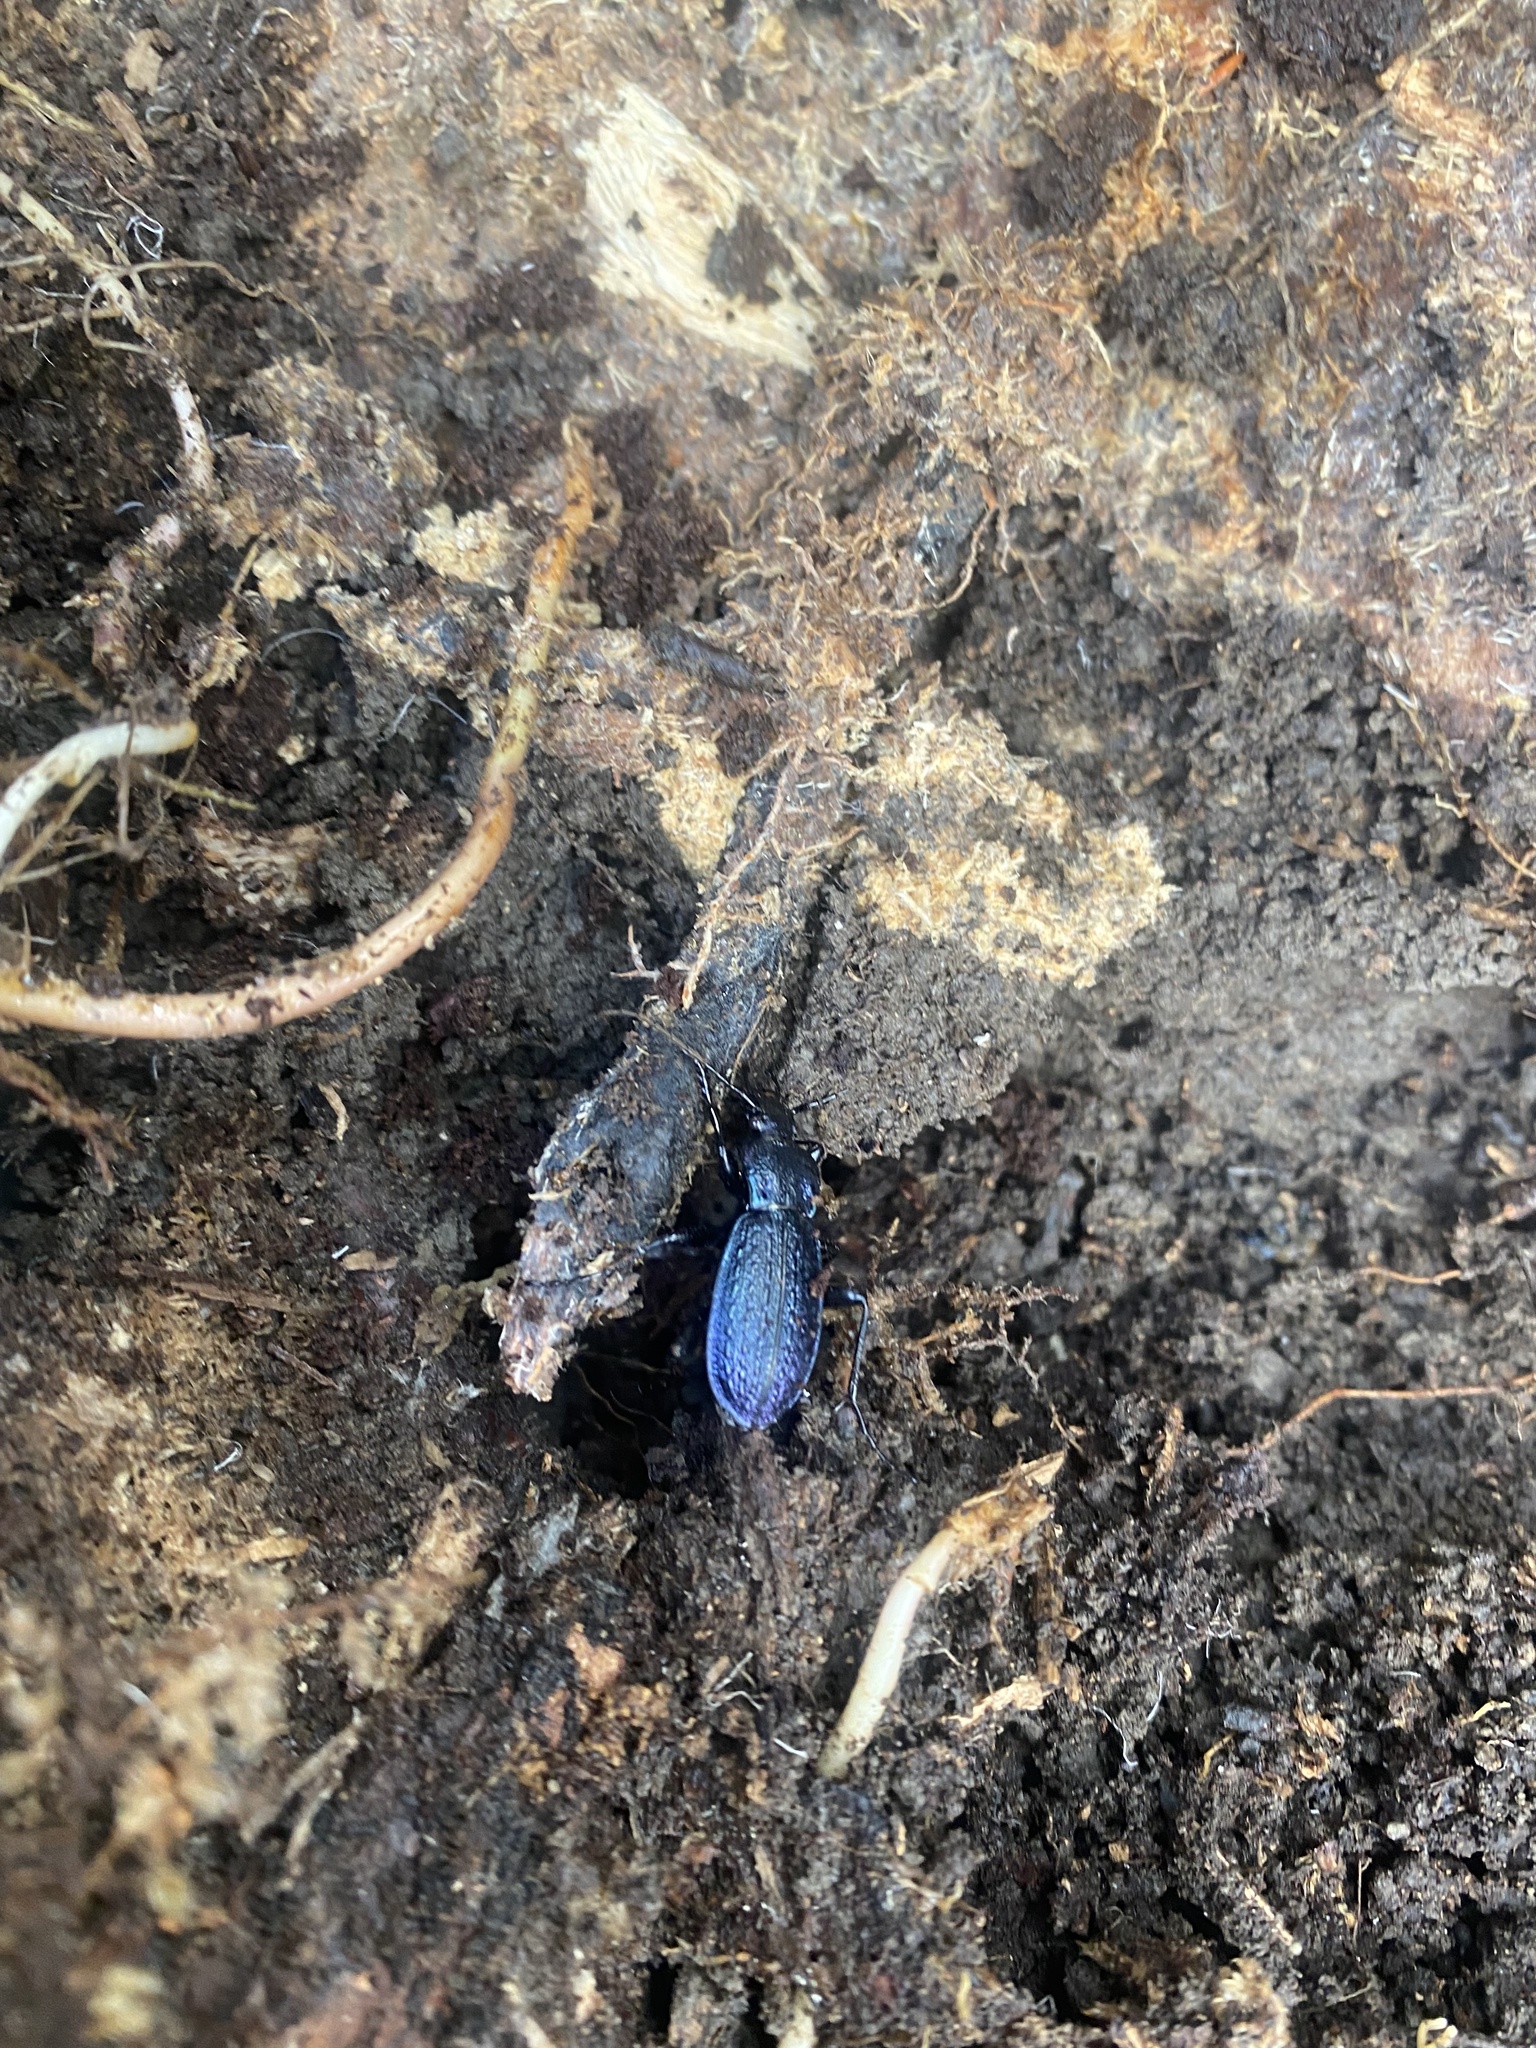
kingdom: Animalia
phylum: Arthropoda
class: Insecta
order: Coleoptera
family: Carabidae
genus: Carabus
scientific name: Carabus varians
